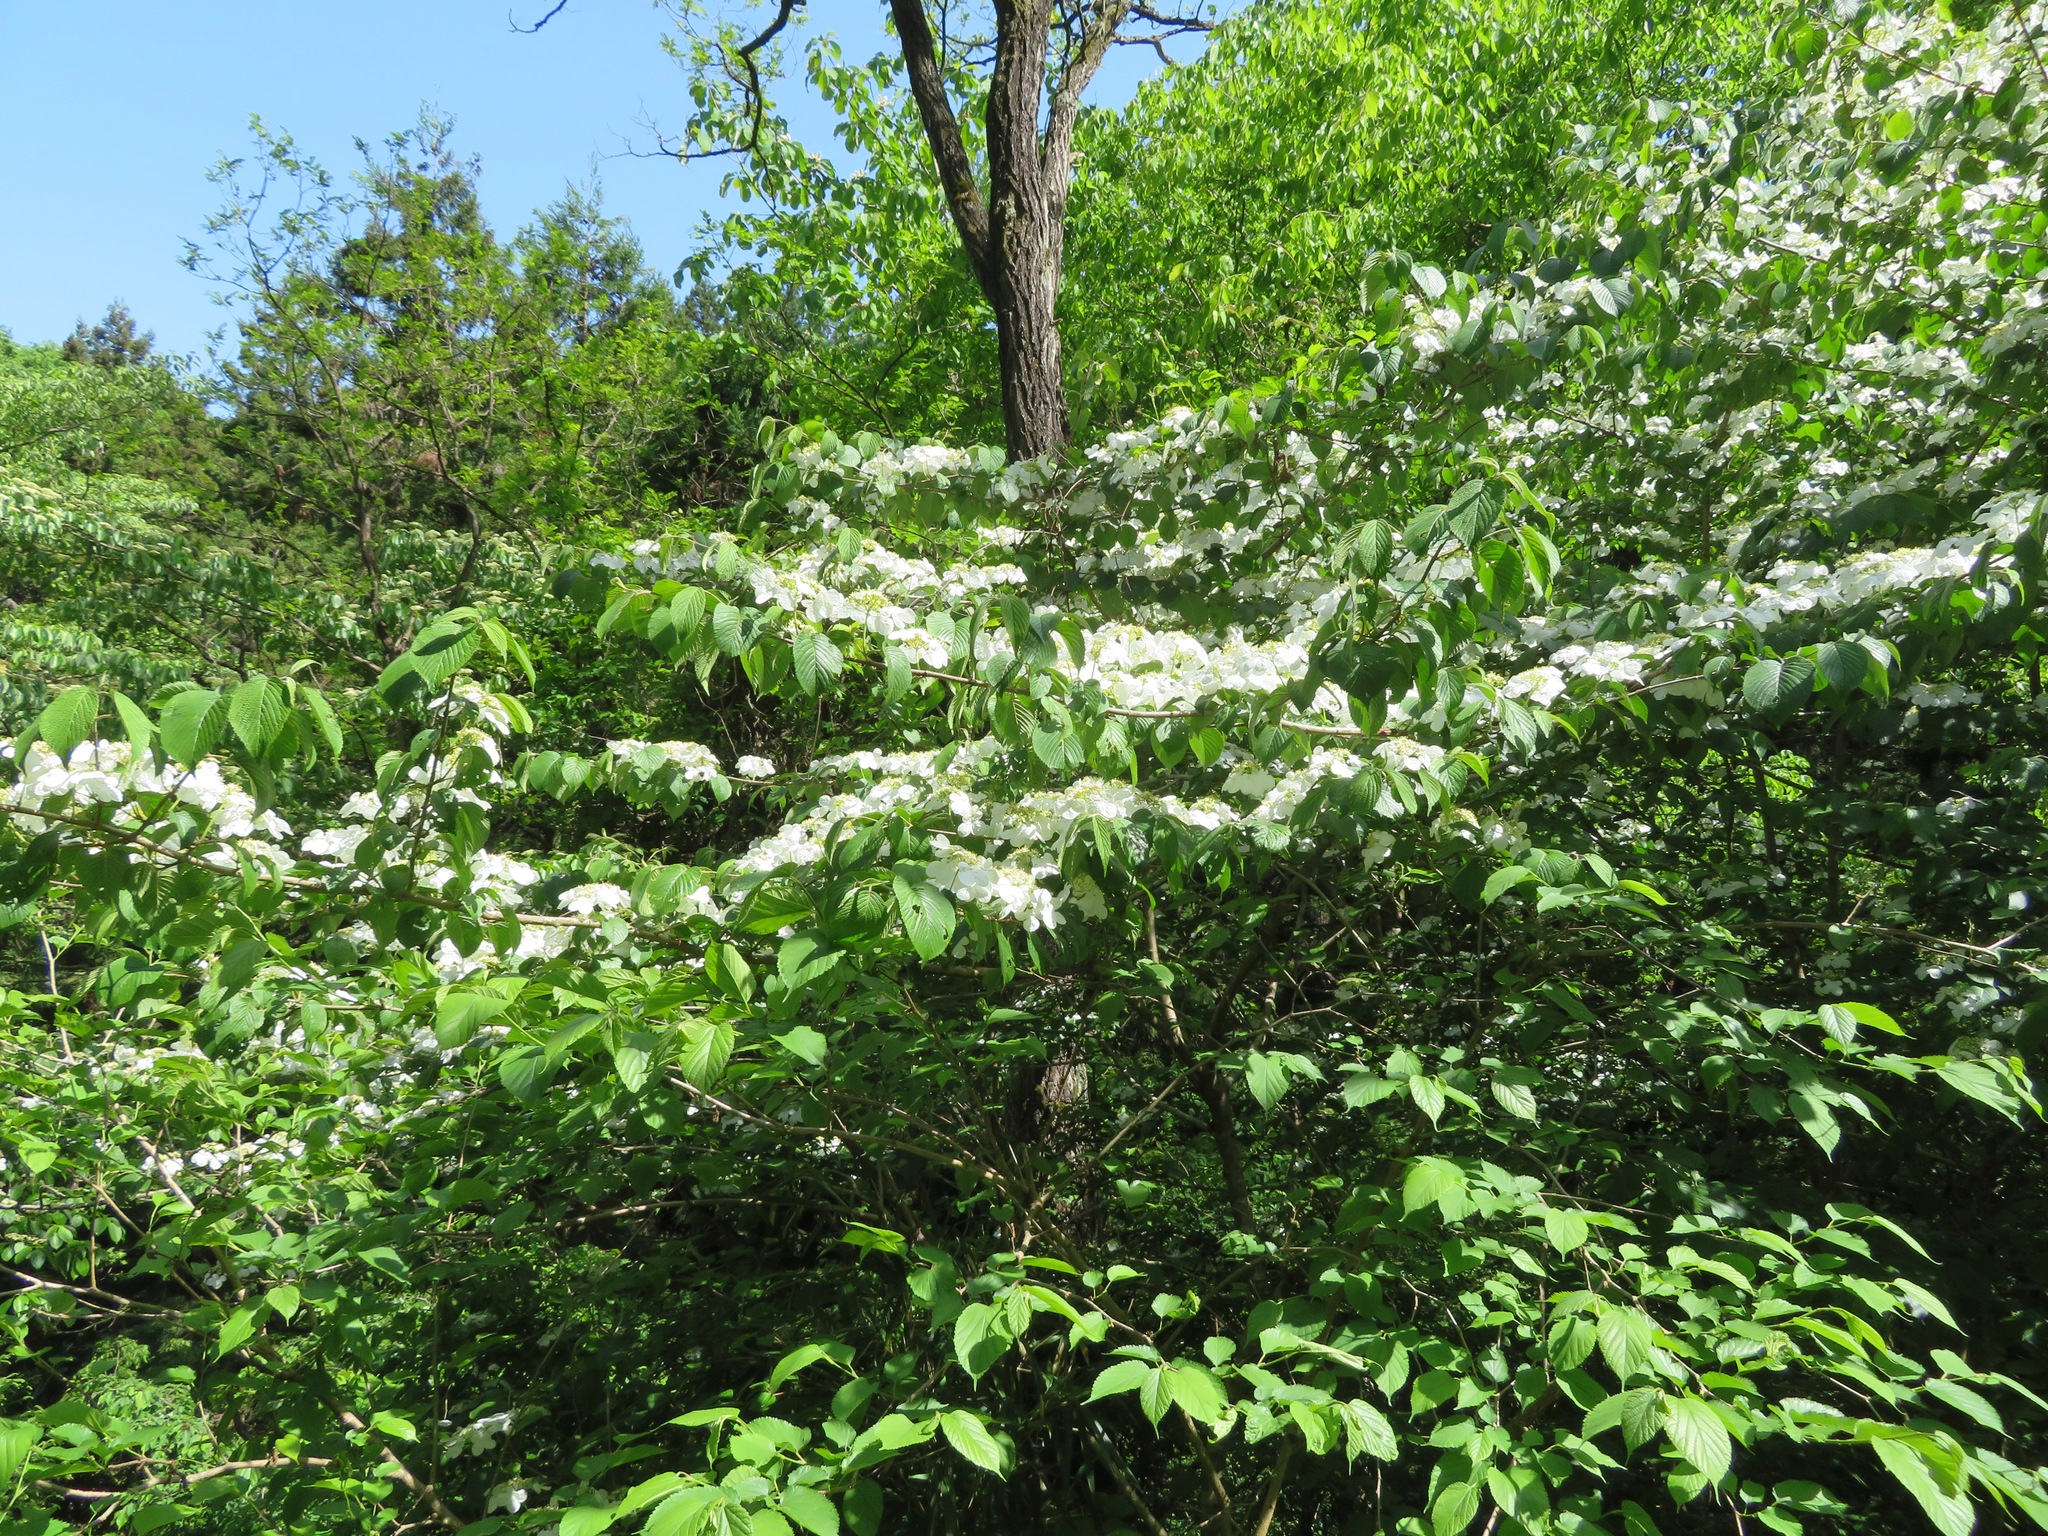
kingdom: Plantae
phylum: Tracheophyta
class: Magnoliopsida
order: Dipsacales
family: Viburnaceae
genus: Viburnum
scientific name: Viburnum plicatum
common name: Japanese snowball
